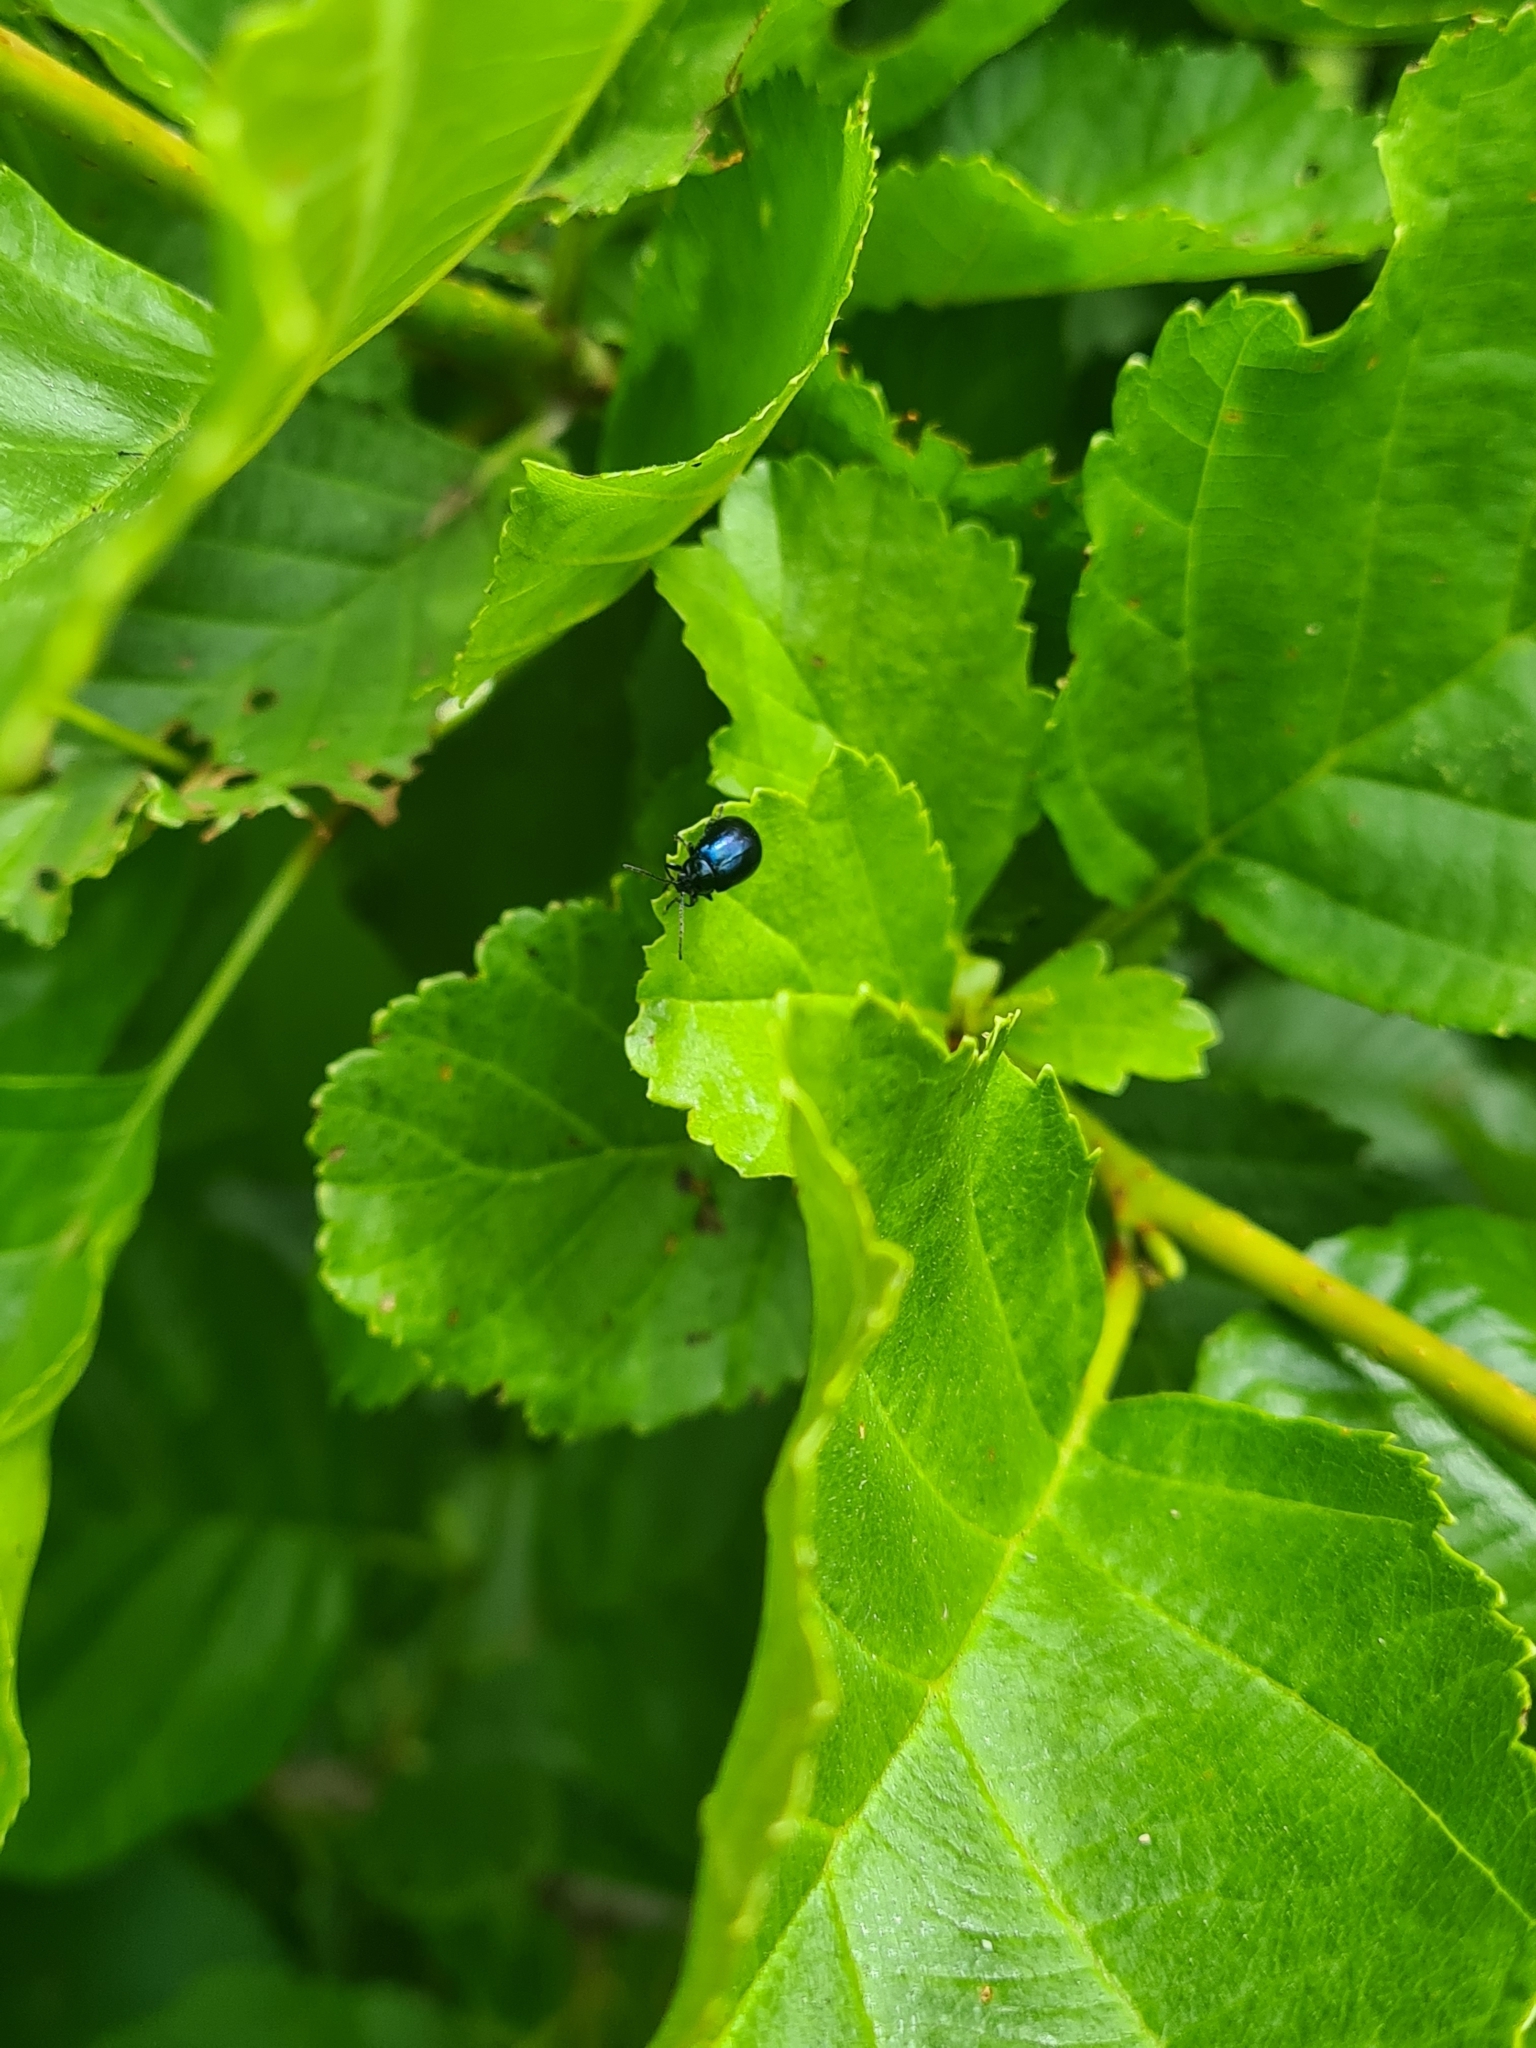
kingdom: Animalia
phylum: Arthropoda
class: Insecta
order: Coleoptera
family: Chrysomelidae
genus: Agelastica
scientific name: Agelastica alni
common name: Alder leaf beetle
